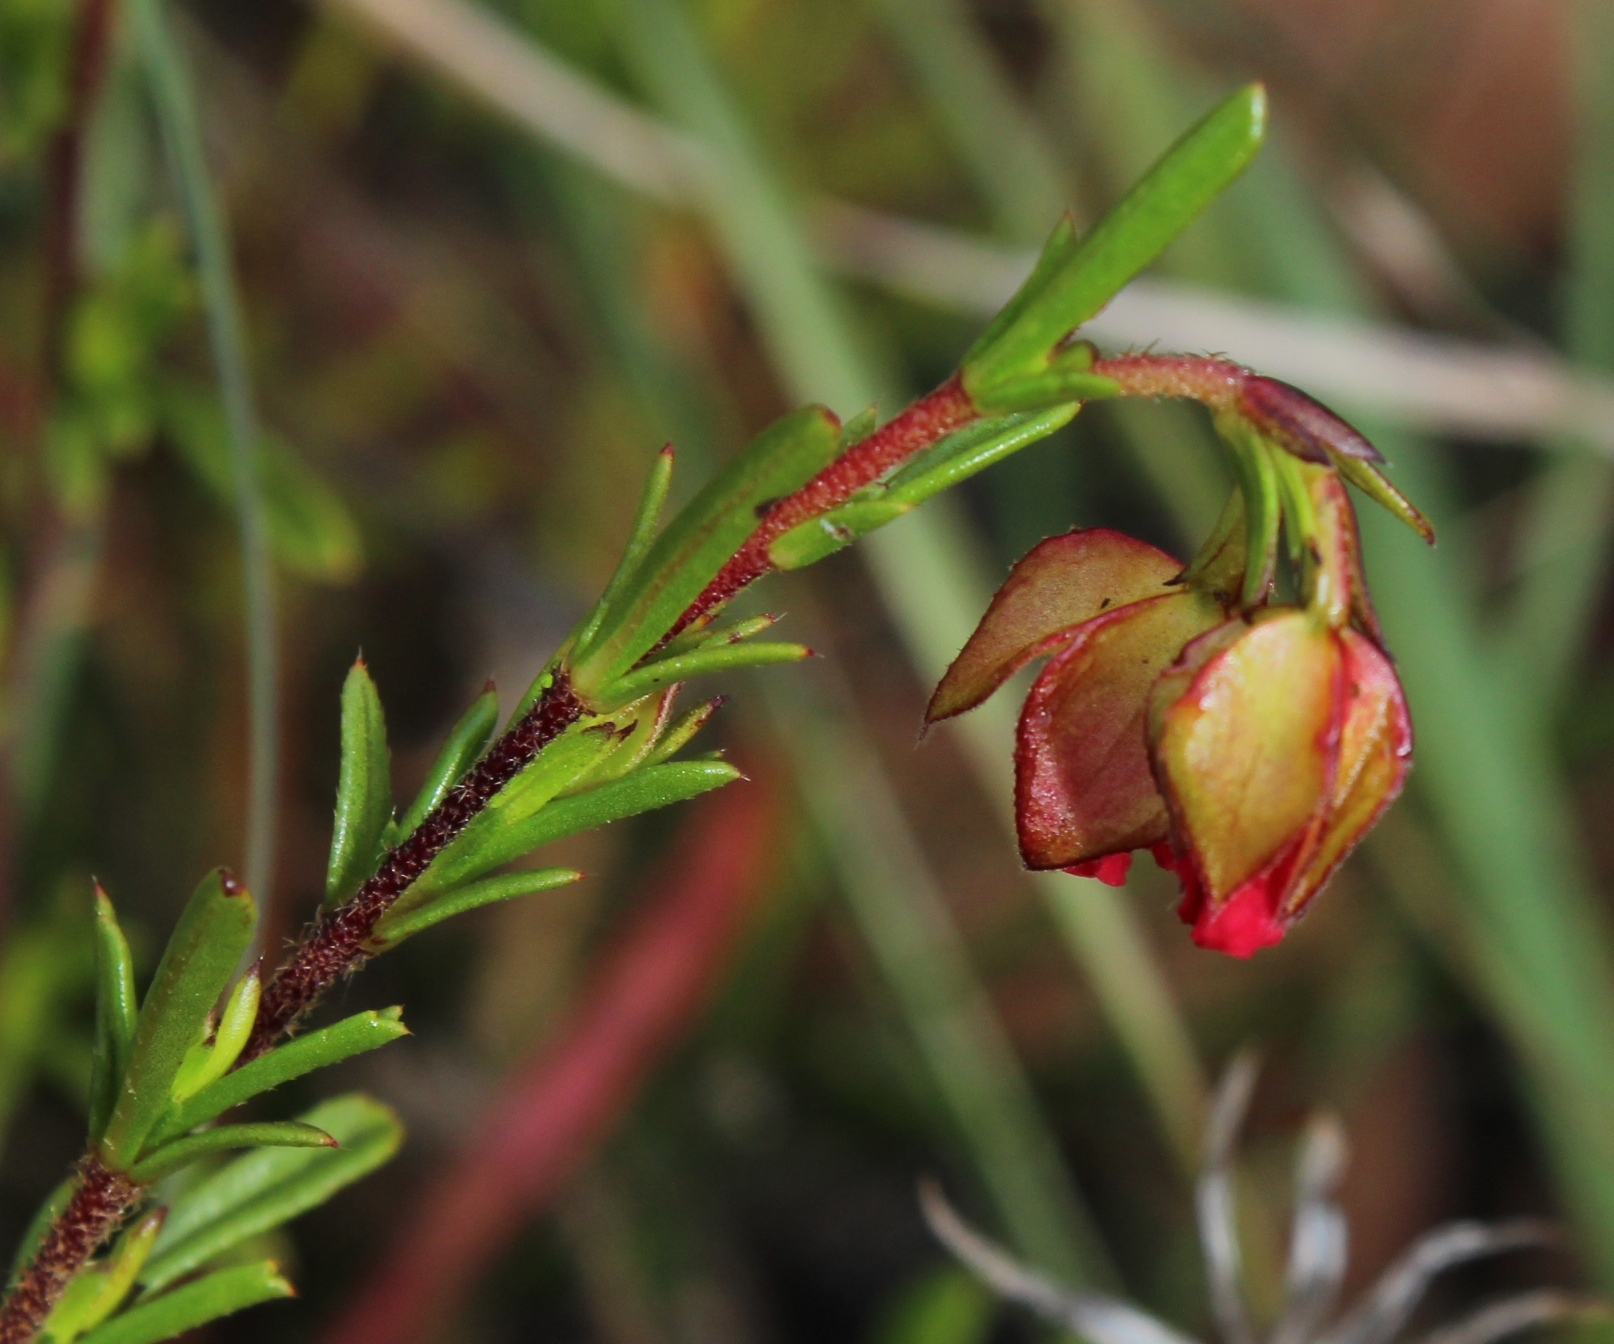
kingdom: Plantae
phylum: Tracheophyta
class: Magnoliopsida
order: Malvales
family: Malvaceae
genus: Hermannia
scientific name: Hermannia angularis
